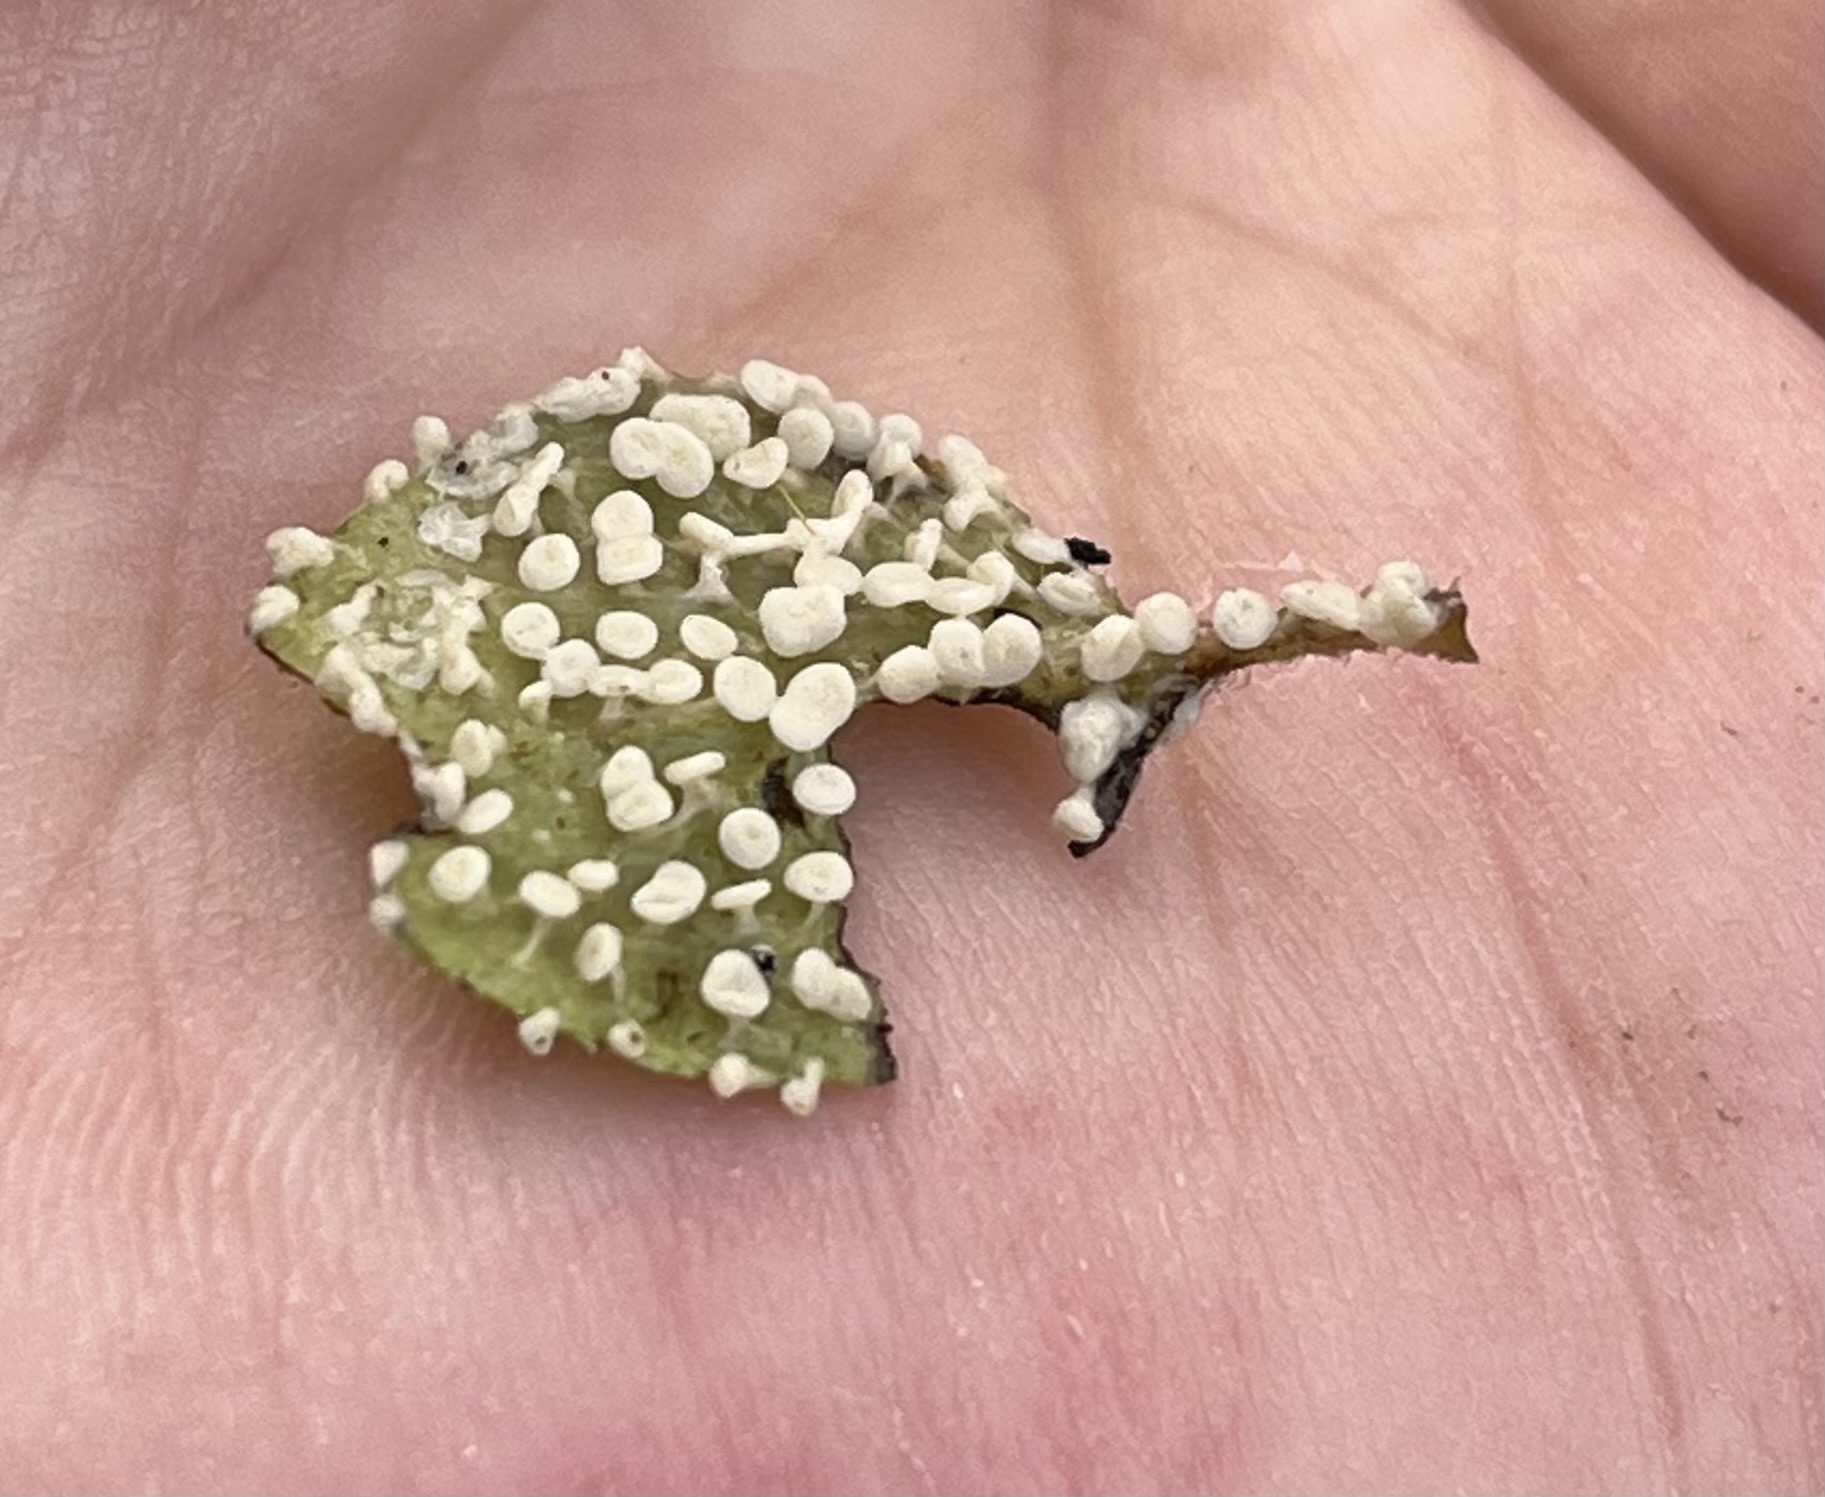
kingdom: Protozoa
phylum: Mycetozoa
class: Myxomycetes
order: Physarales
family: Didymiaceae
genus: Diderma
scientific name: Diderma hemisphaericum
